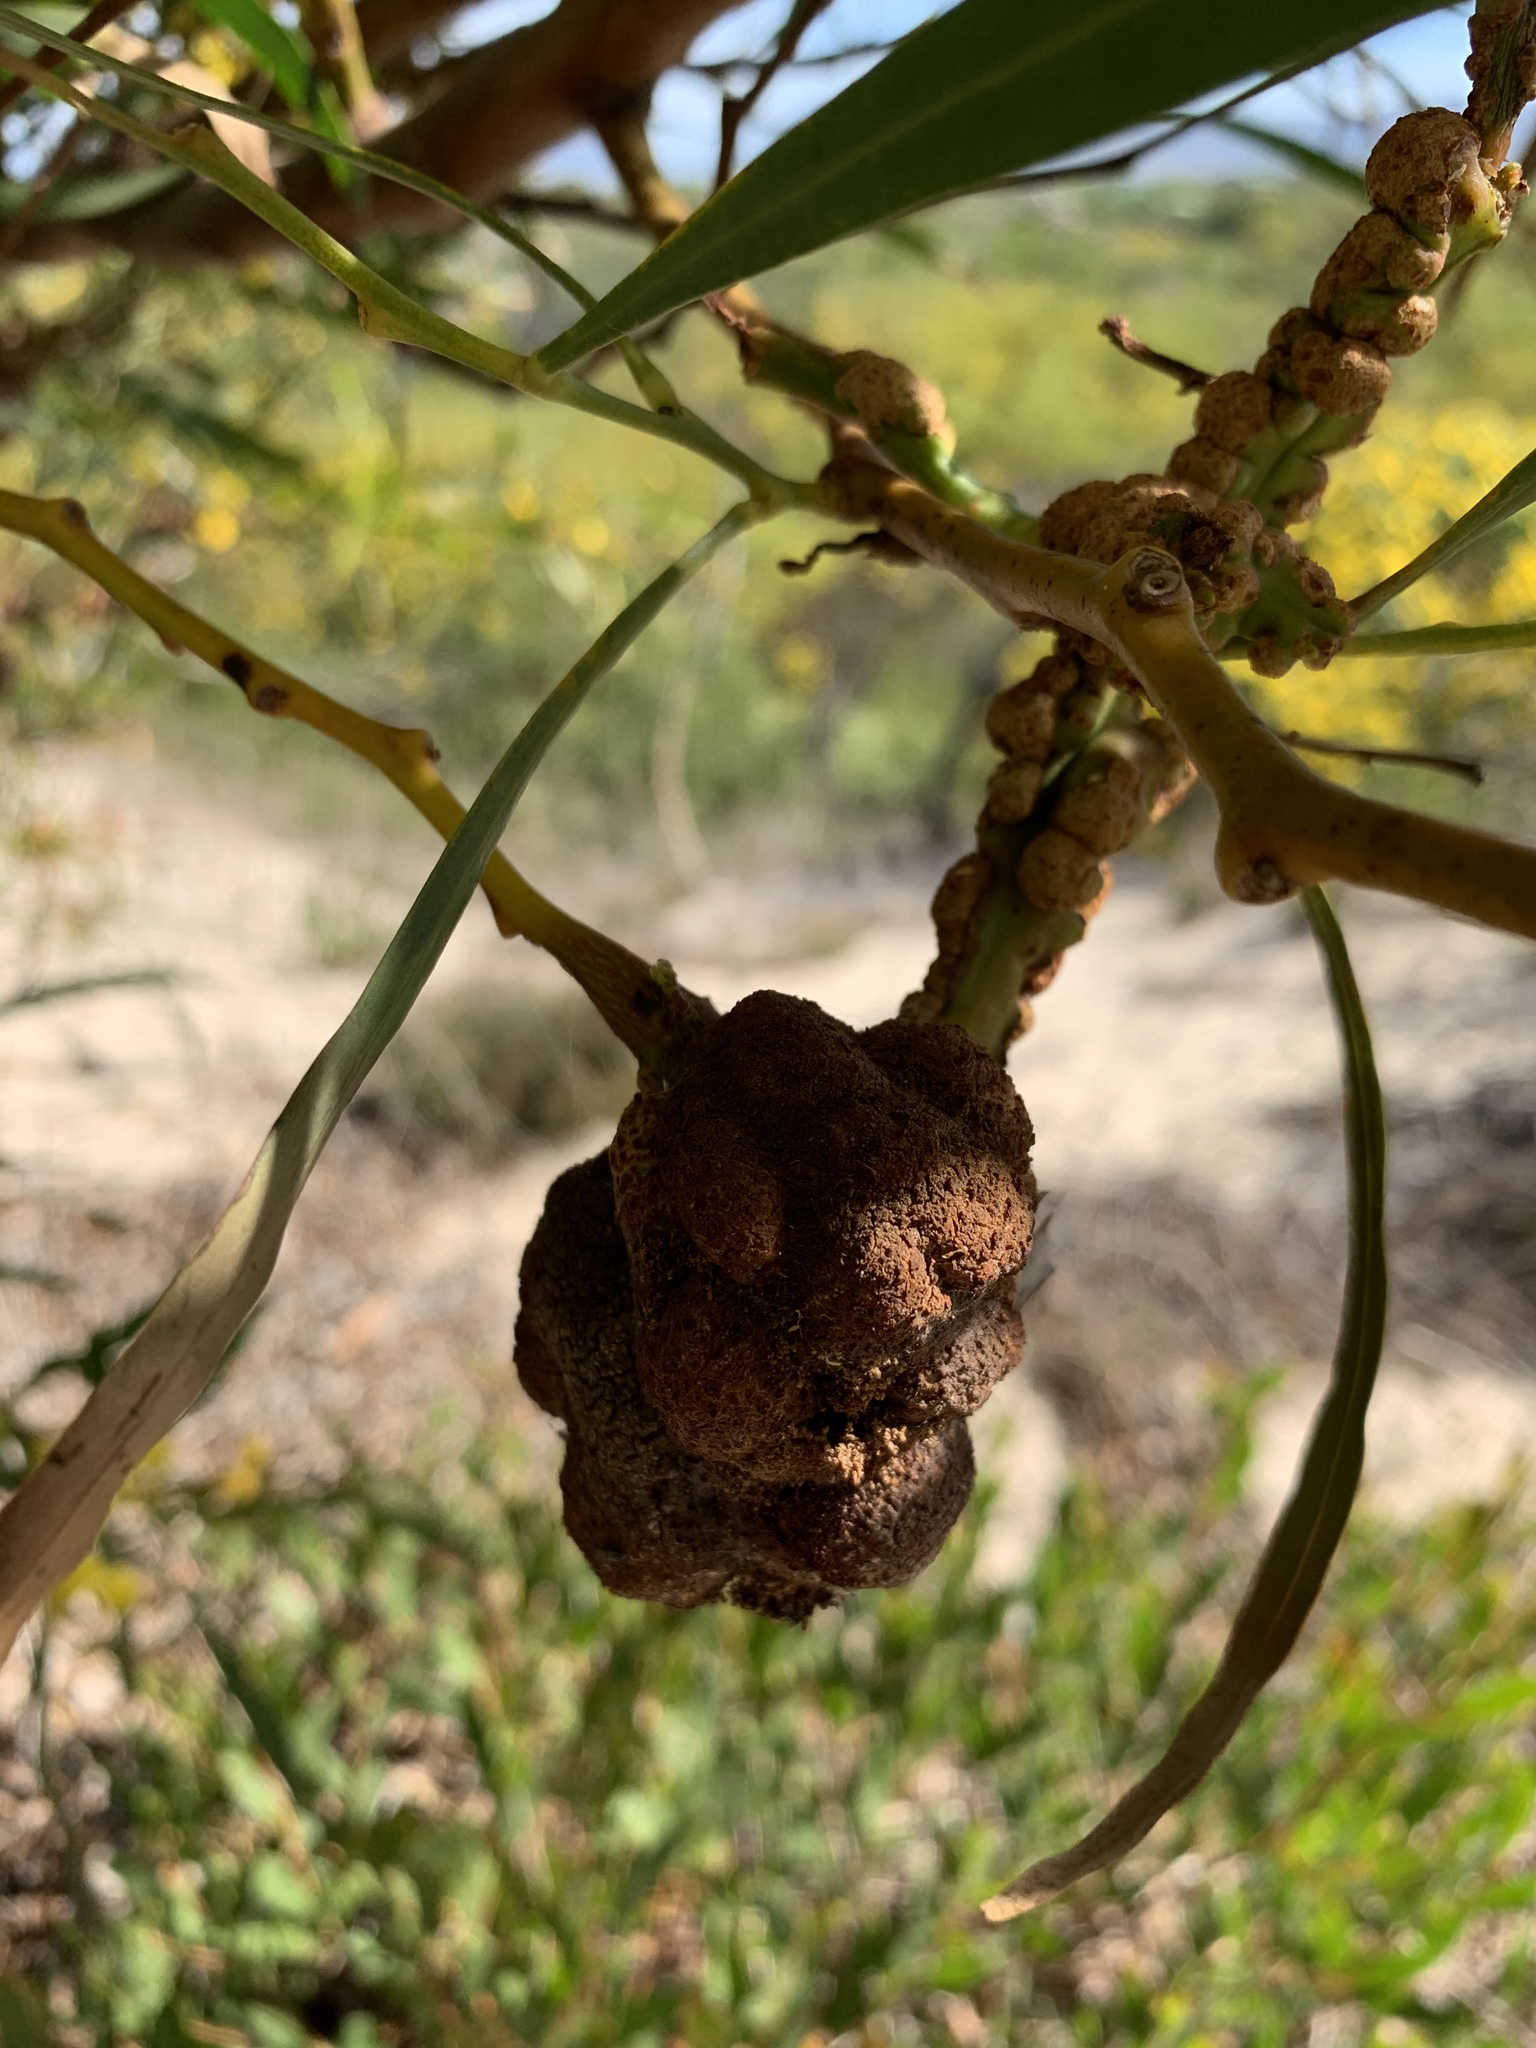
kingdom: Fungi
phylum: Basidiomycota
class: Pucciniomycetes
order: Pucciniales
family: Uromycladiaceae
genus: Uromycladium
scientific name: Uromycladium morrisii
